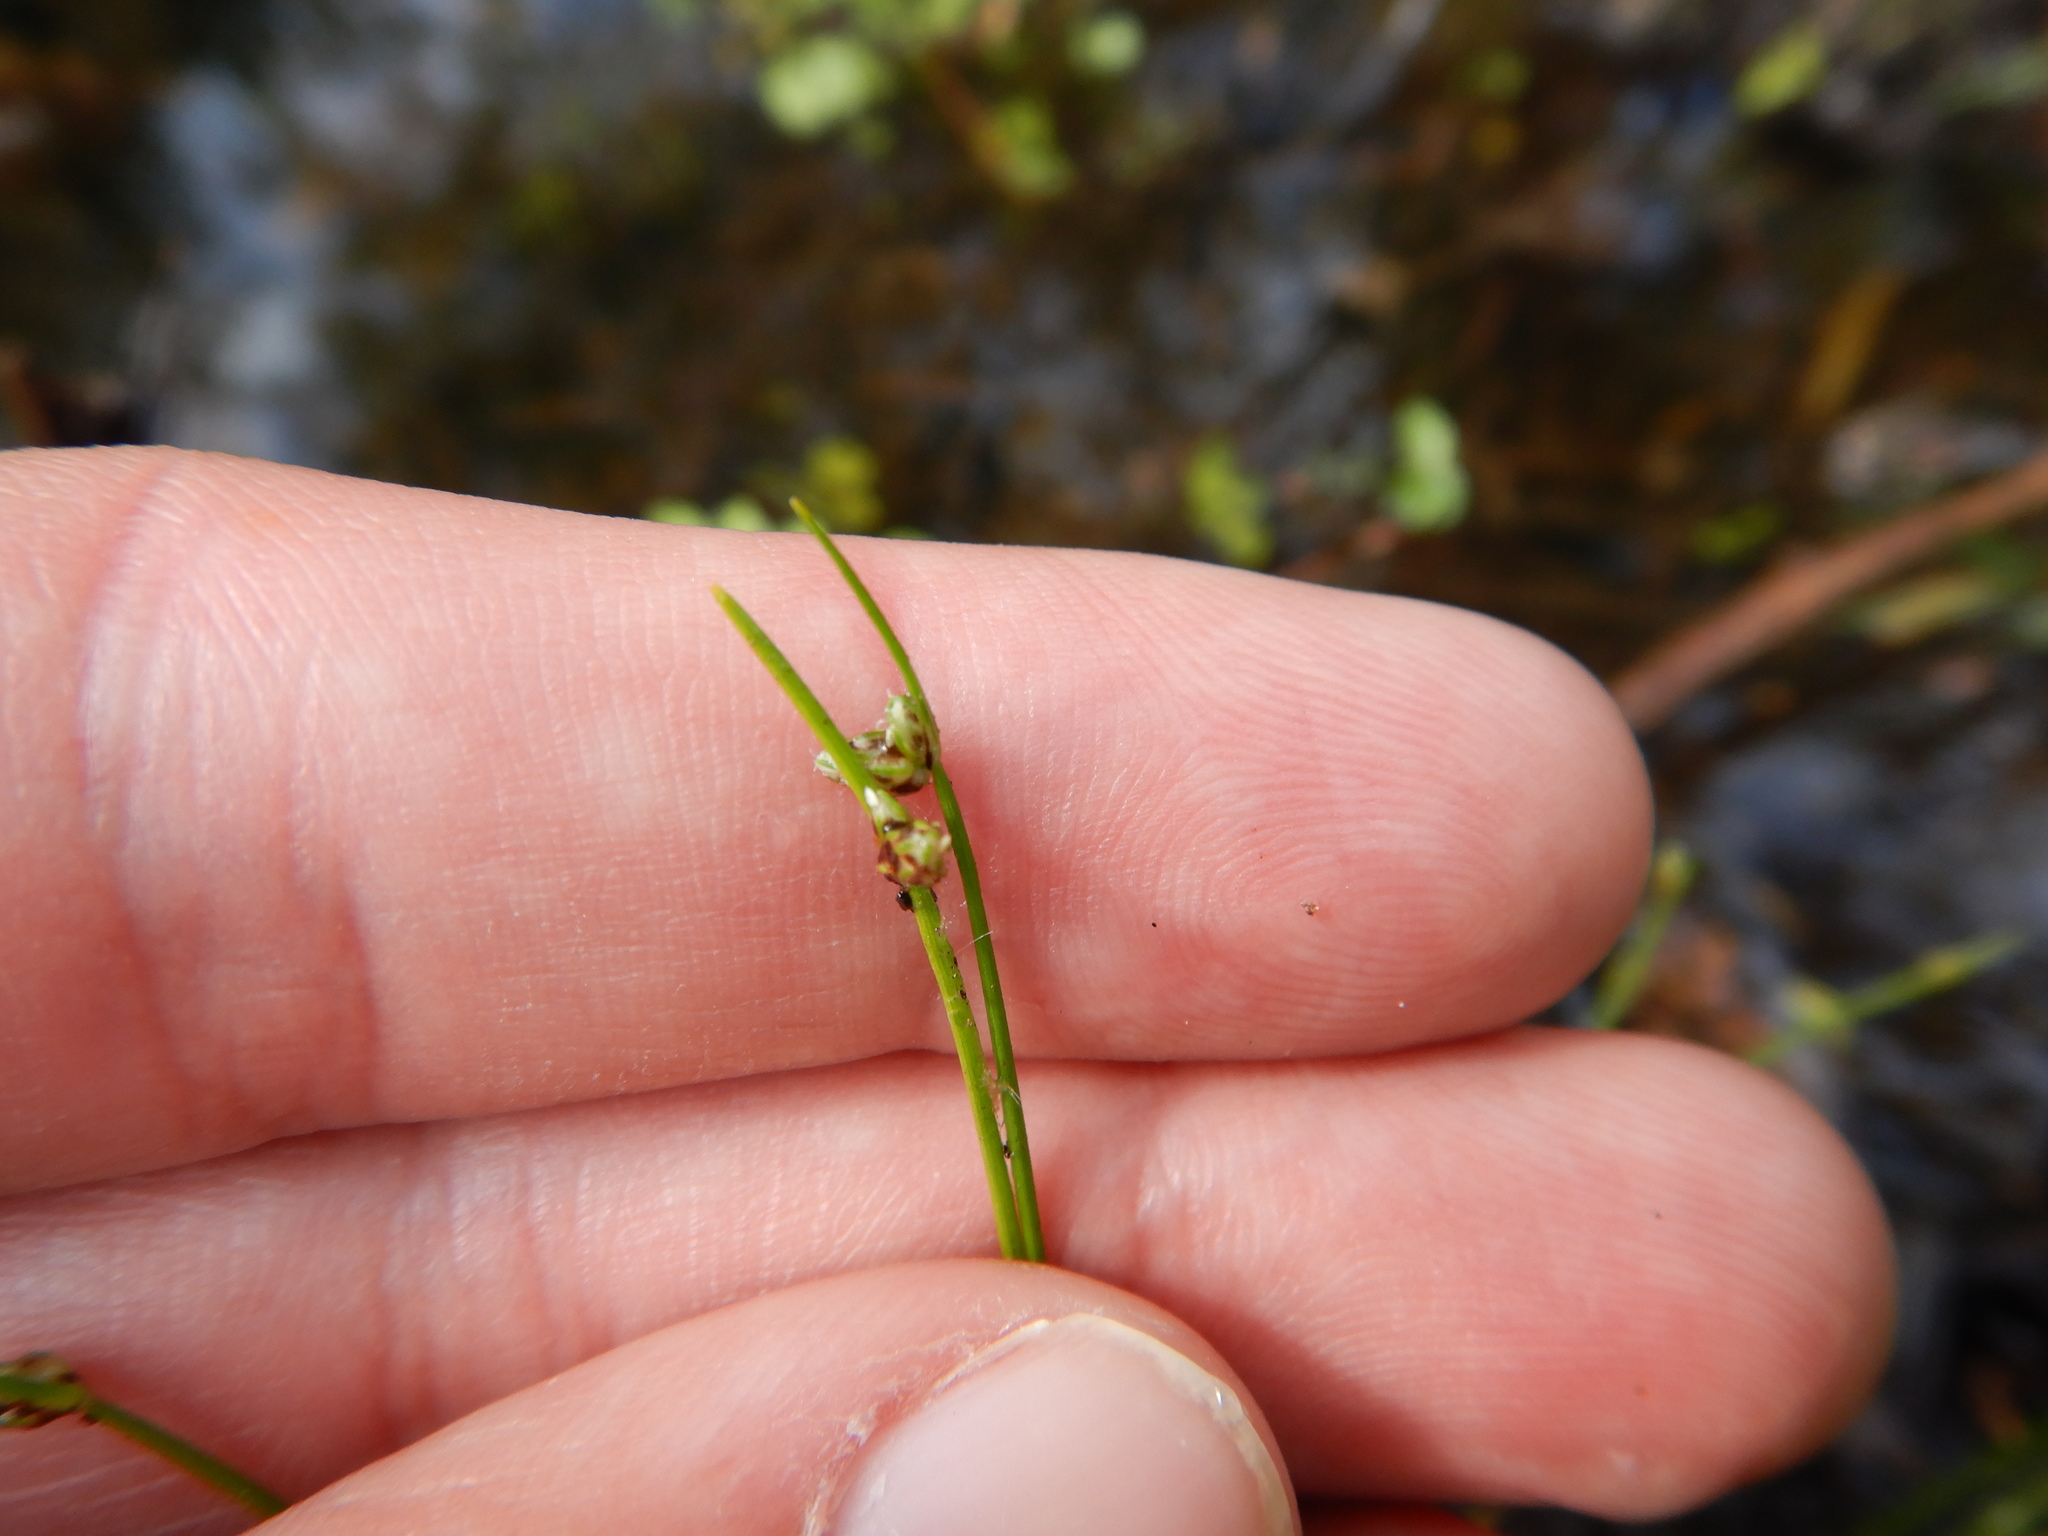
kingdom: Plantae
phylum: Tracheophyta
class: Liliopsida
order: Poales
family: Cyperaceae
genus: Isolepis
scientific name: Isolepis setacea
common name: Bristle club-rush
